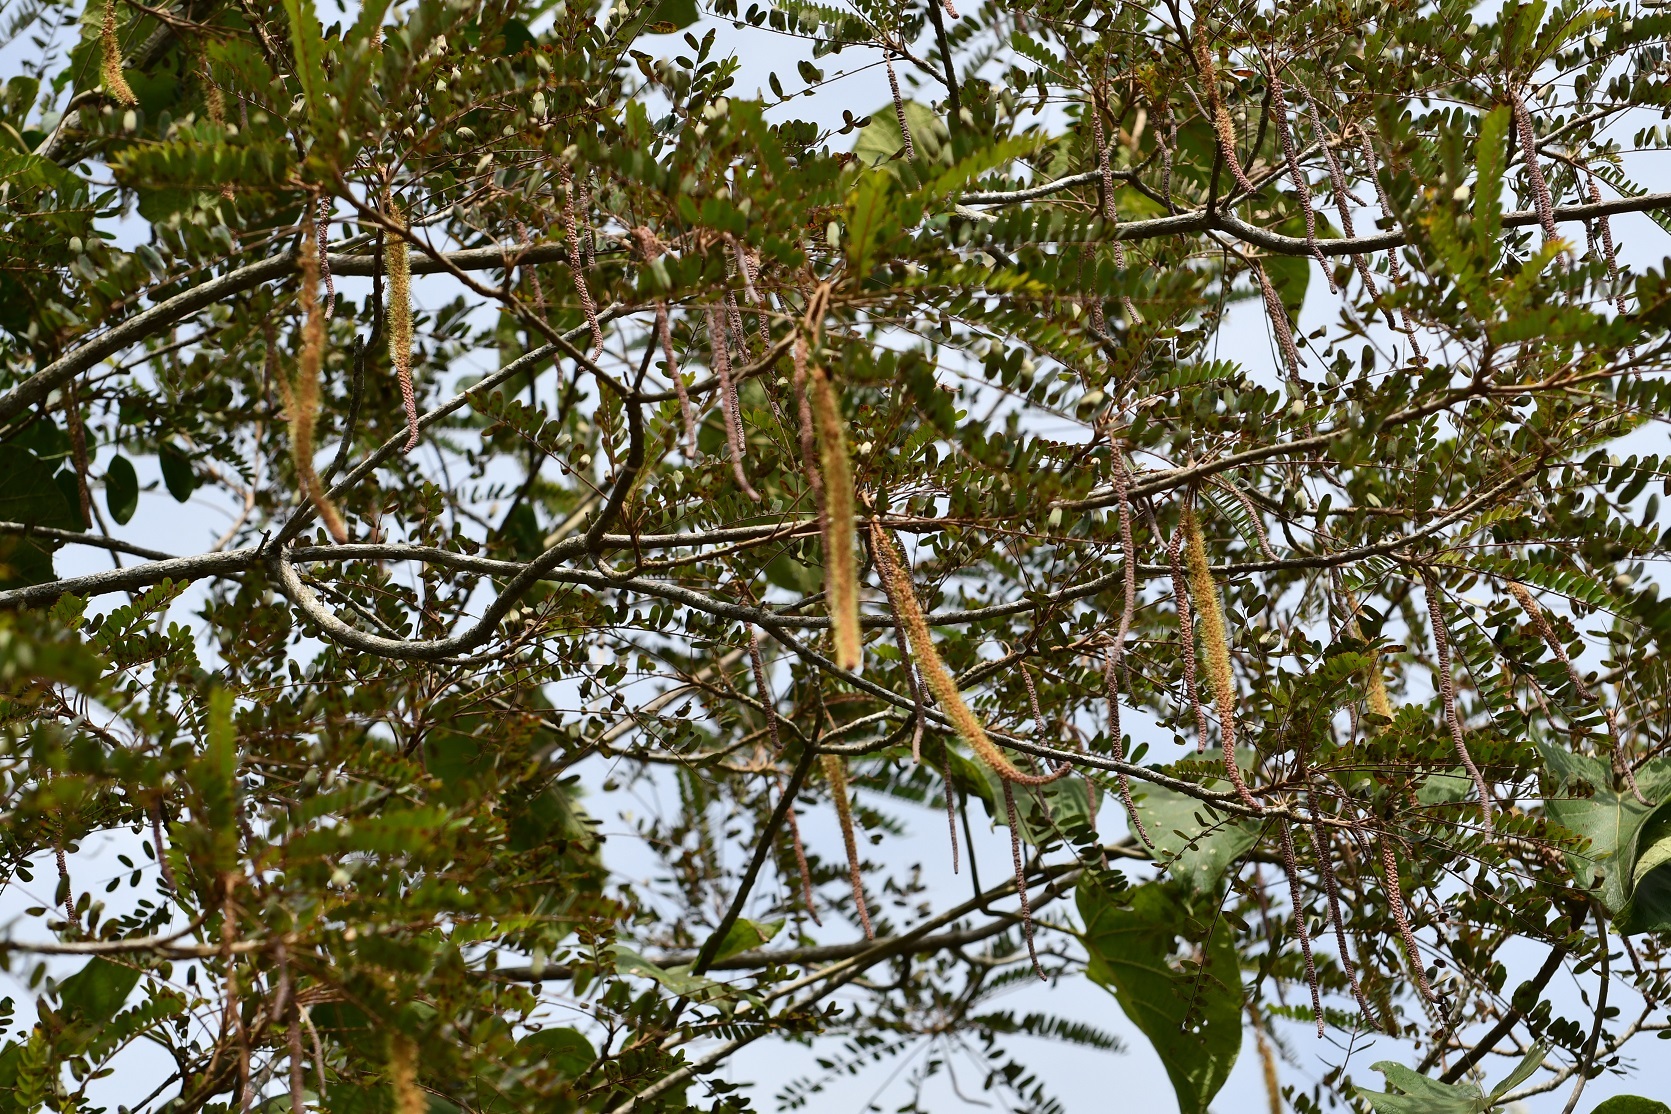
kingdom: Plantae
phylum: Tracheophyta
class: Magnoliopsida
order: Picramniales
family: Picramniaceae
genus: Alvaradoa
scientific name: Alvaradoa amorphoides
